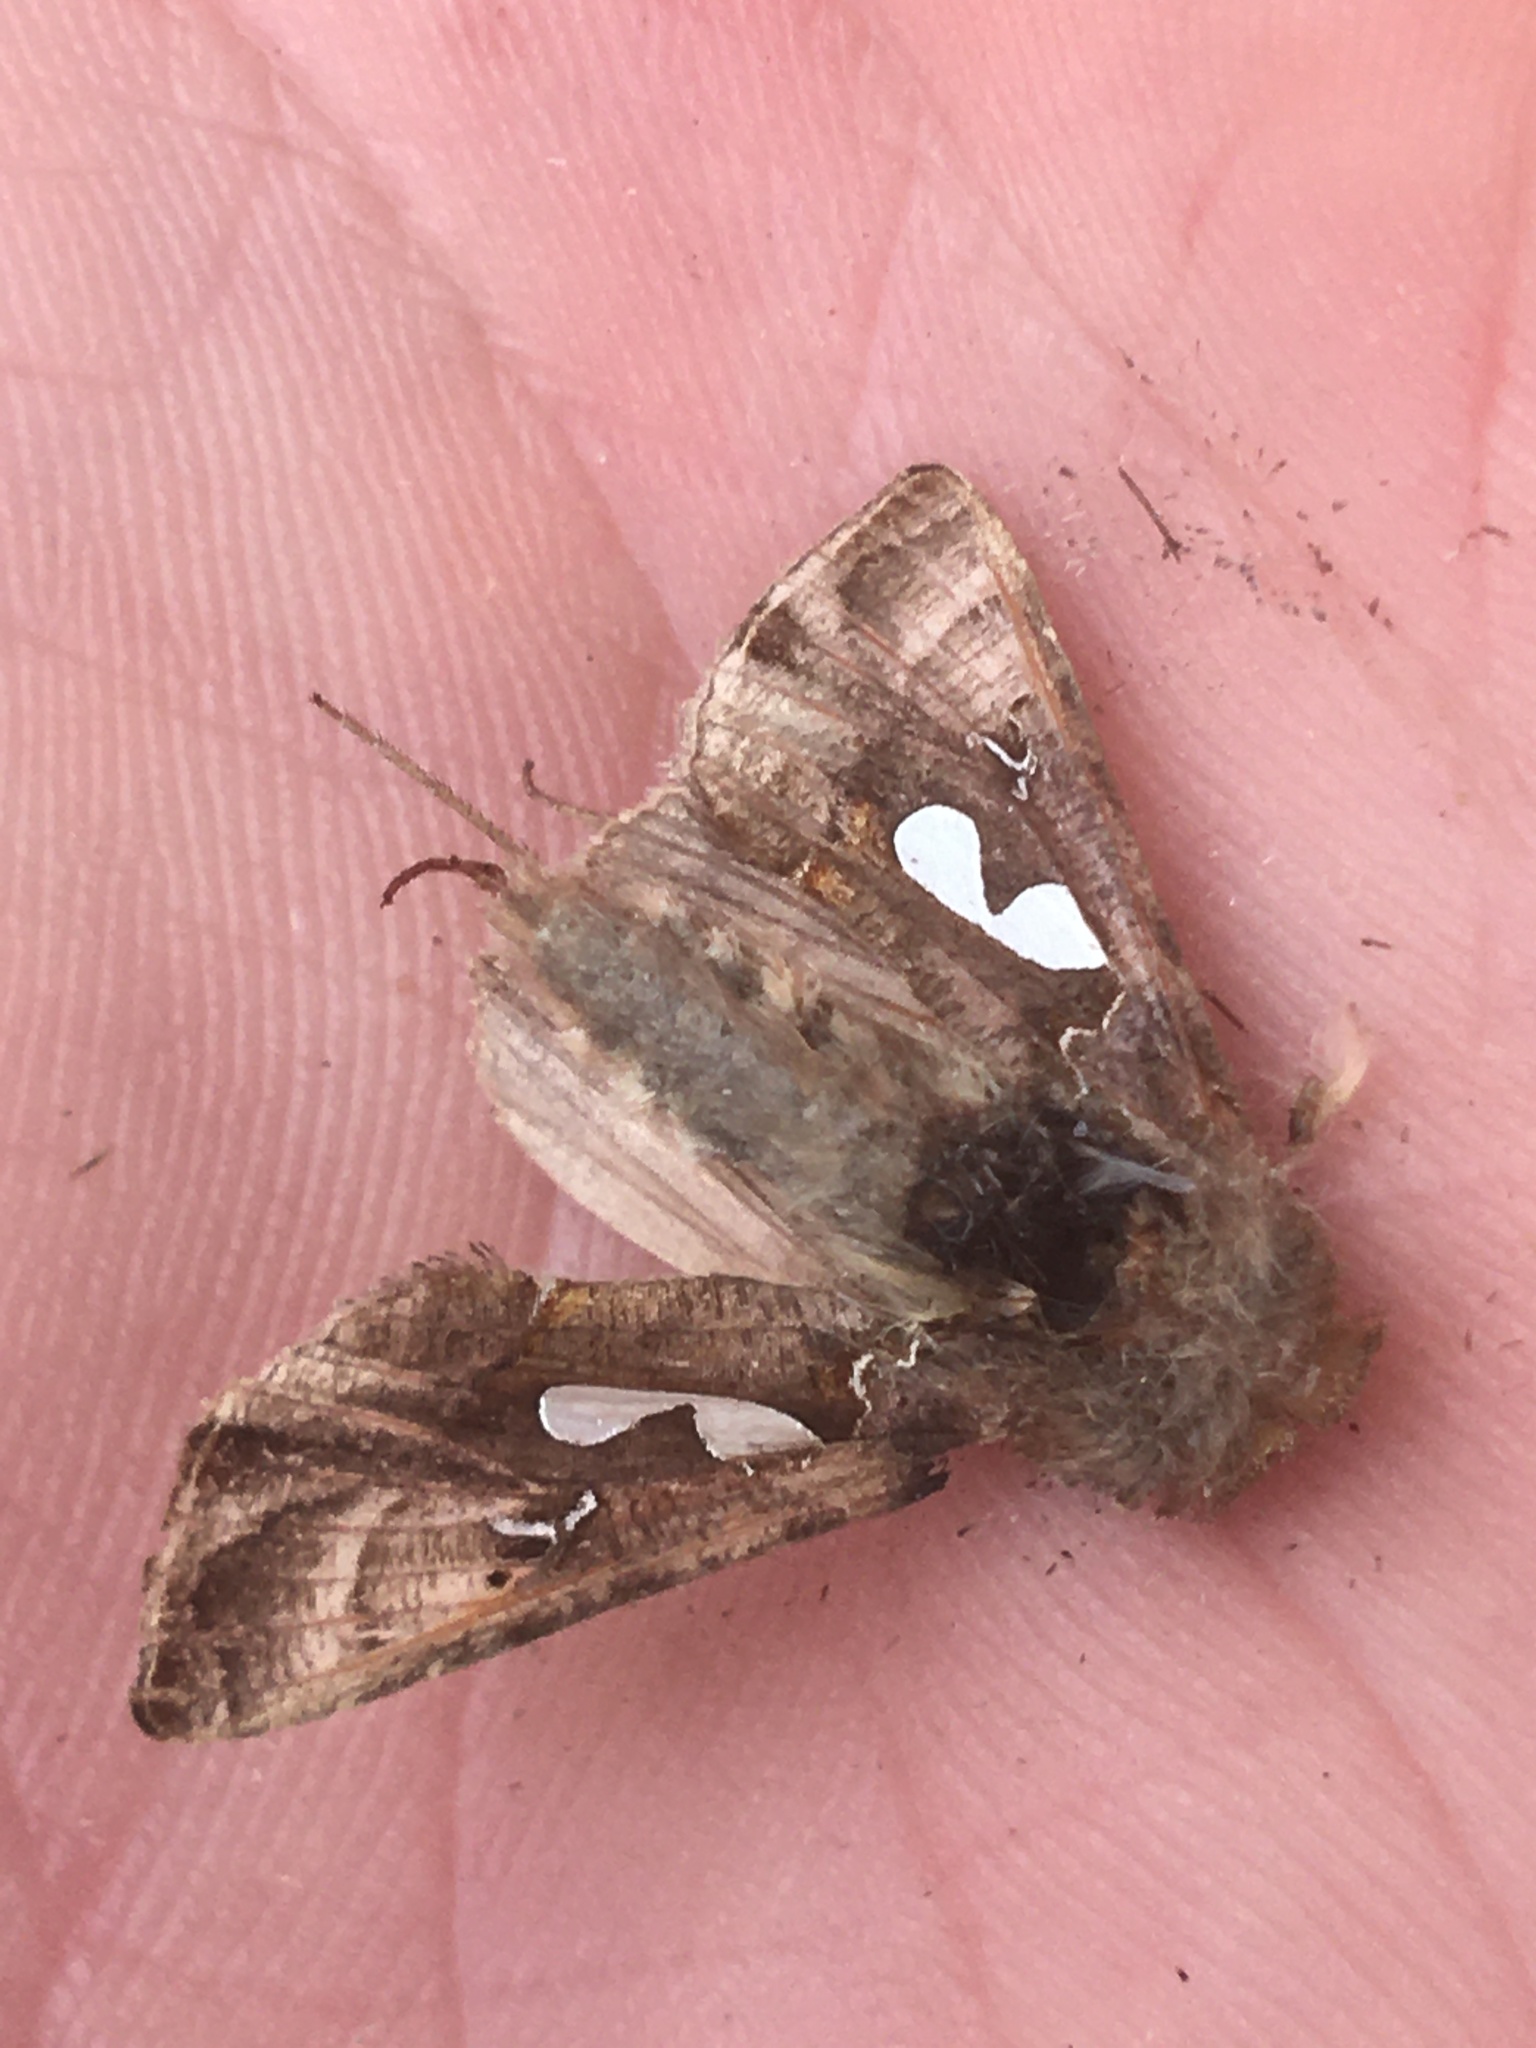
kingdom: Animalia
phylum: Arthropoda
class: Insecta
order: Lepidoptera
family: Noctuidae
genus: Megalographa
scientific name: Megalographa biloba
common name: Cutworm
